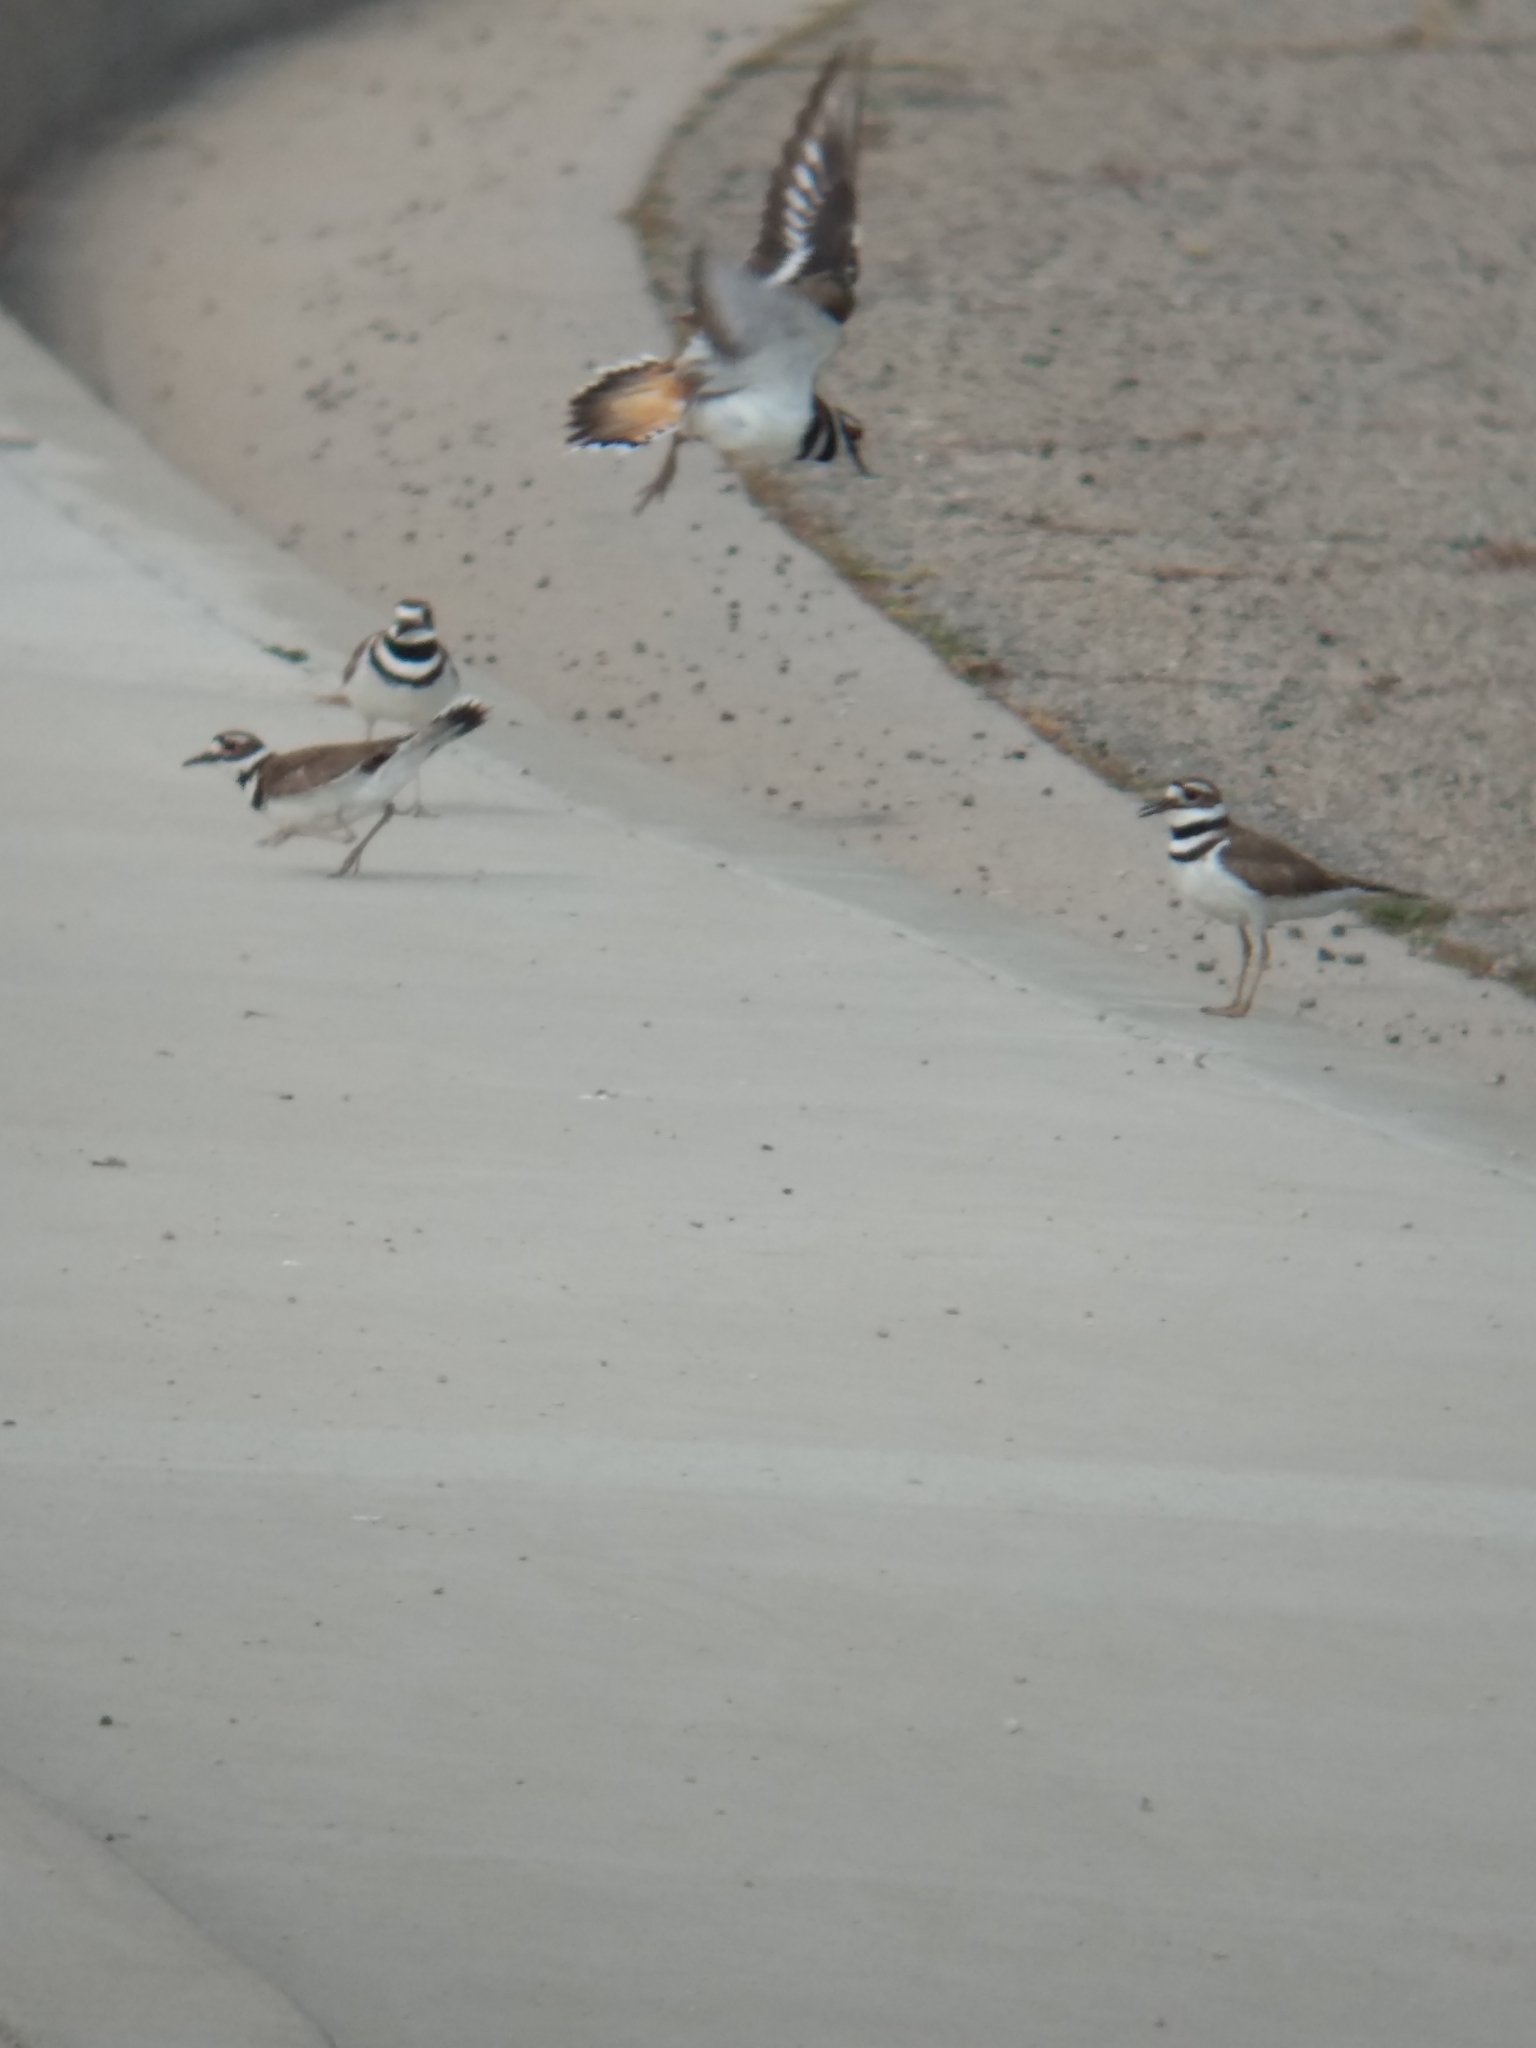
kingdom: Animalia
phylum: Chordata
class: Aves
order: Charadriiformes
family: Charadriidae
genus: Charadrius
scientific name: Charadrius vociferus
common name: Killdeer
